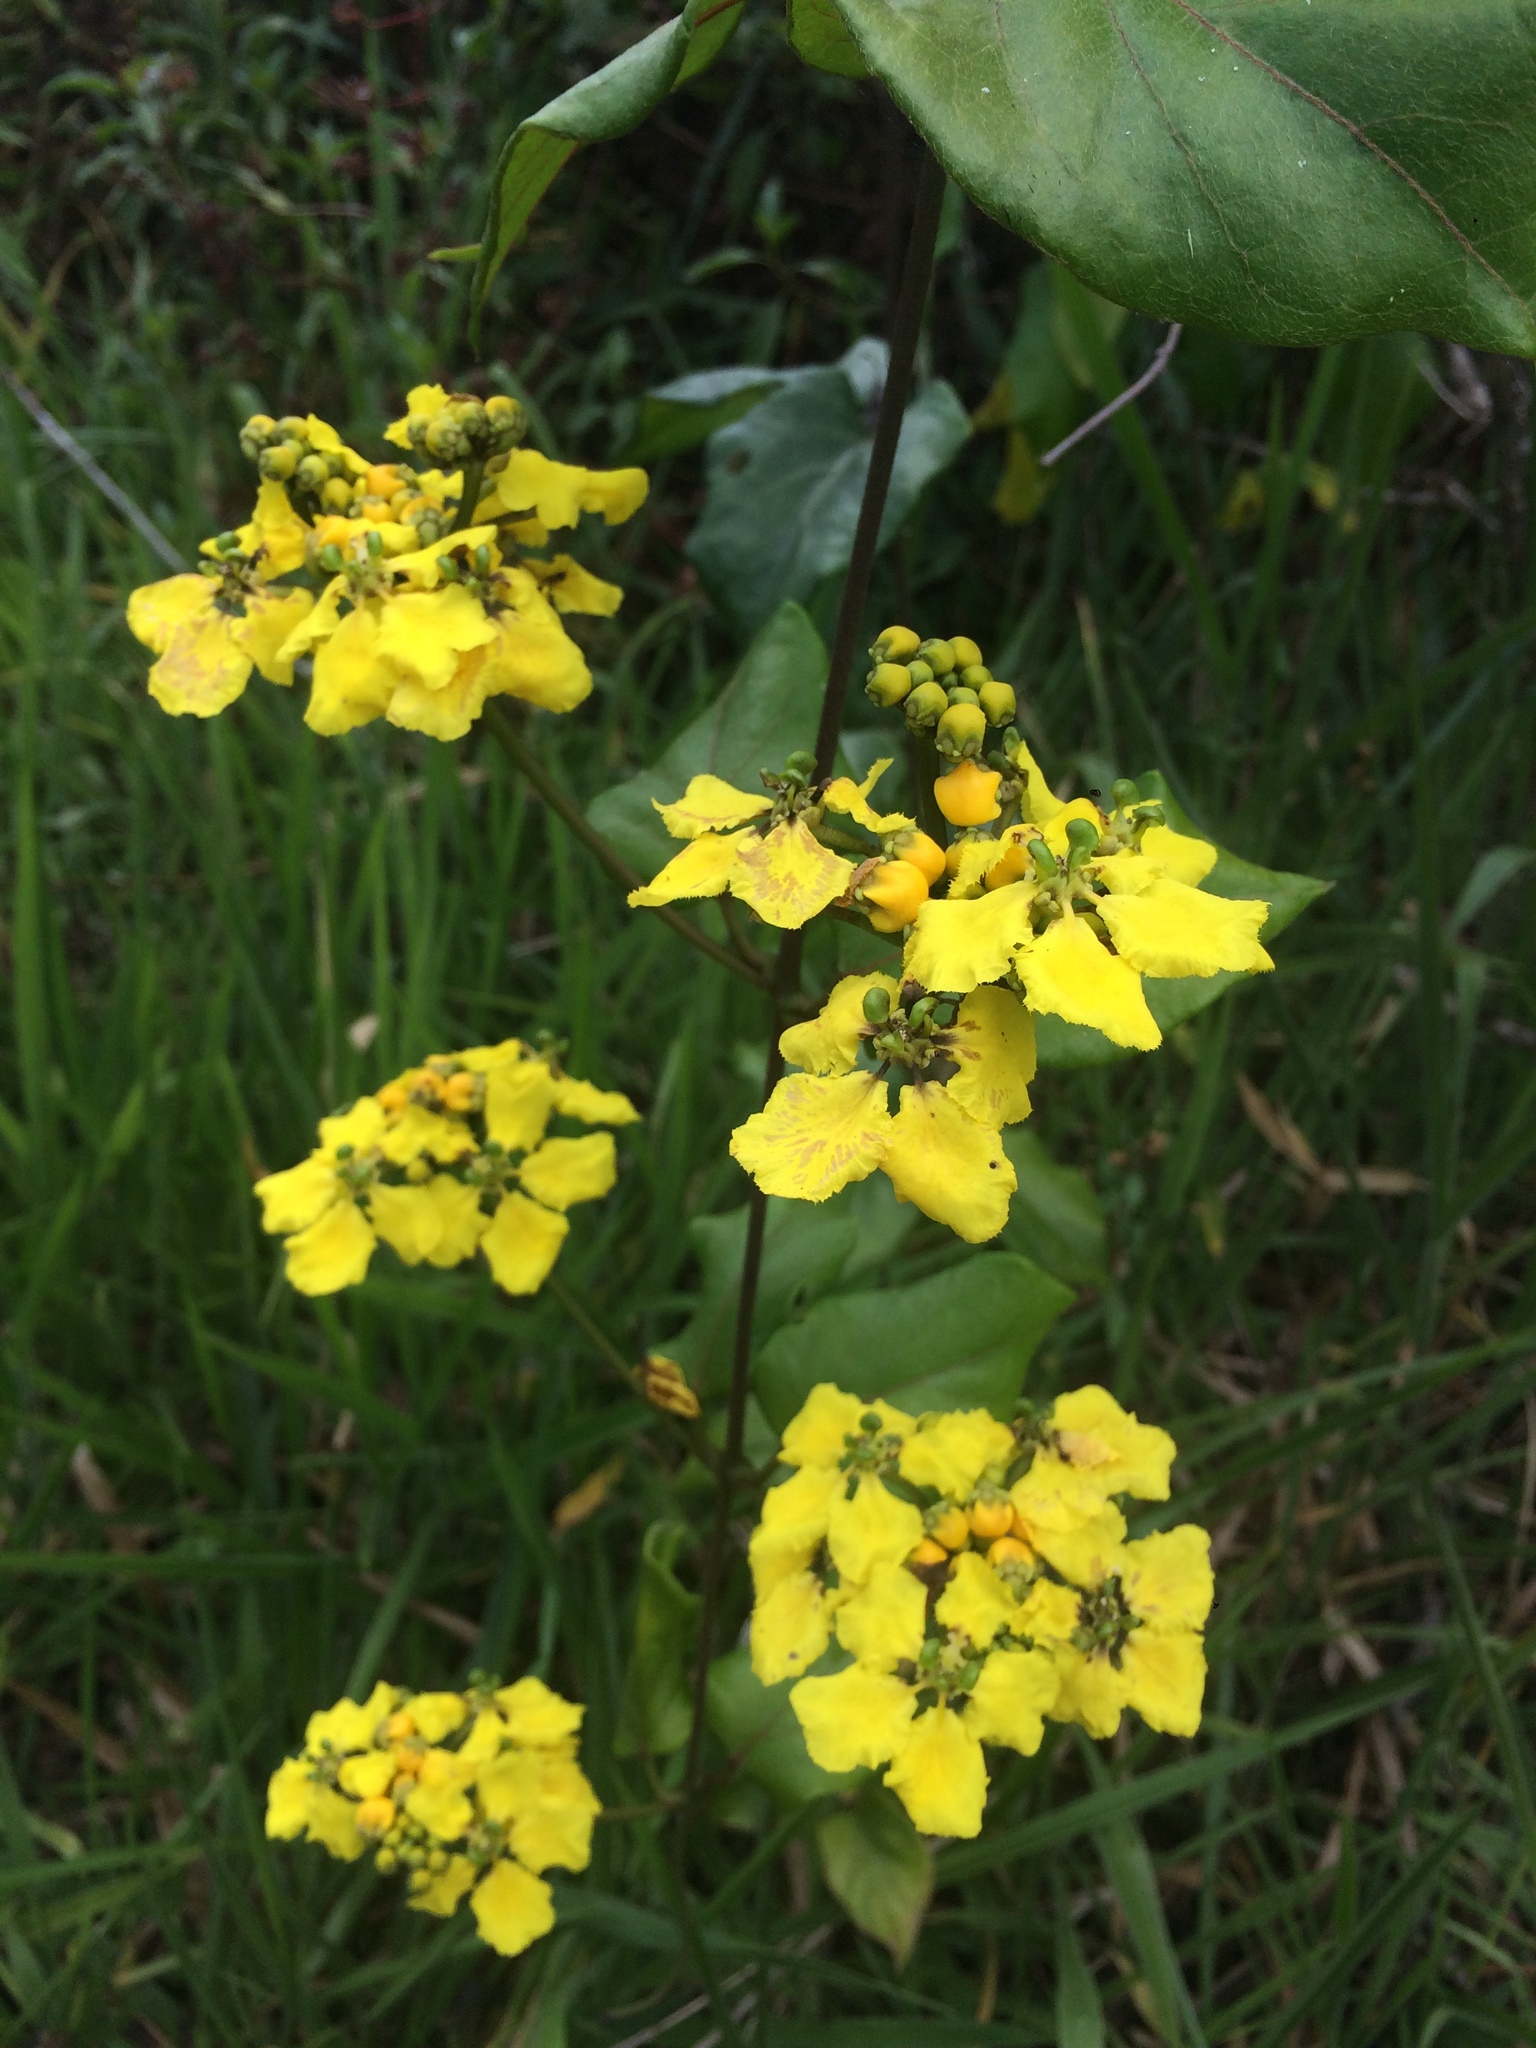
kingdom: Plantae
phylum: Tracheophyta
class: Magnoliopsida
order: Malpighiales
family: Malpighiaceae
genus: Stigmaphyllon
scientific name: Stigmaphyllon blanchetii
